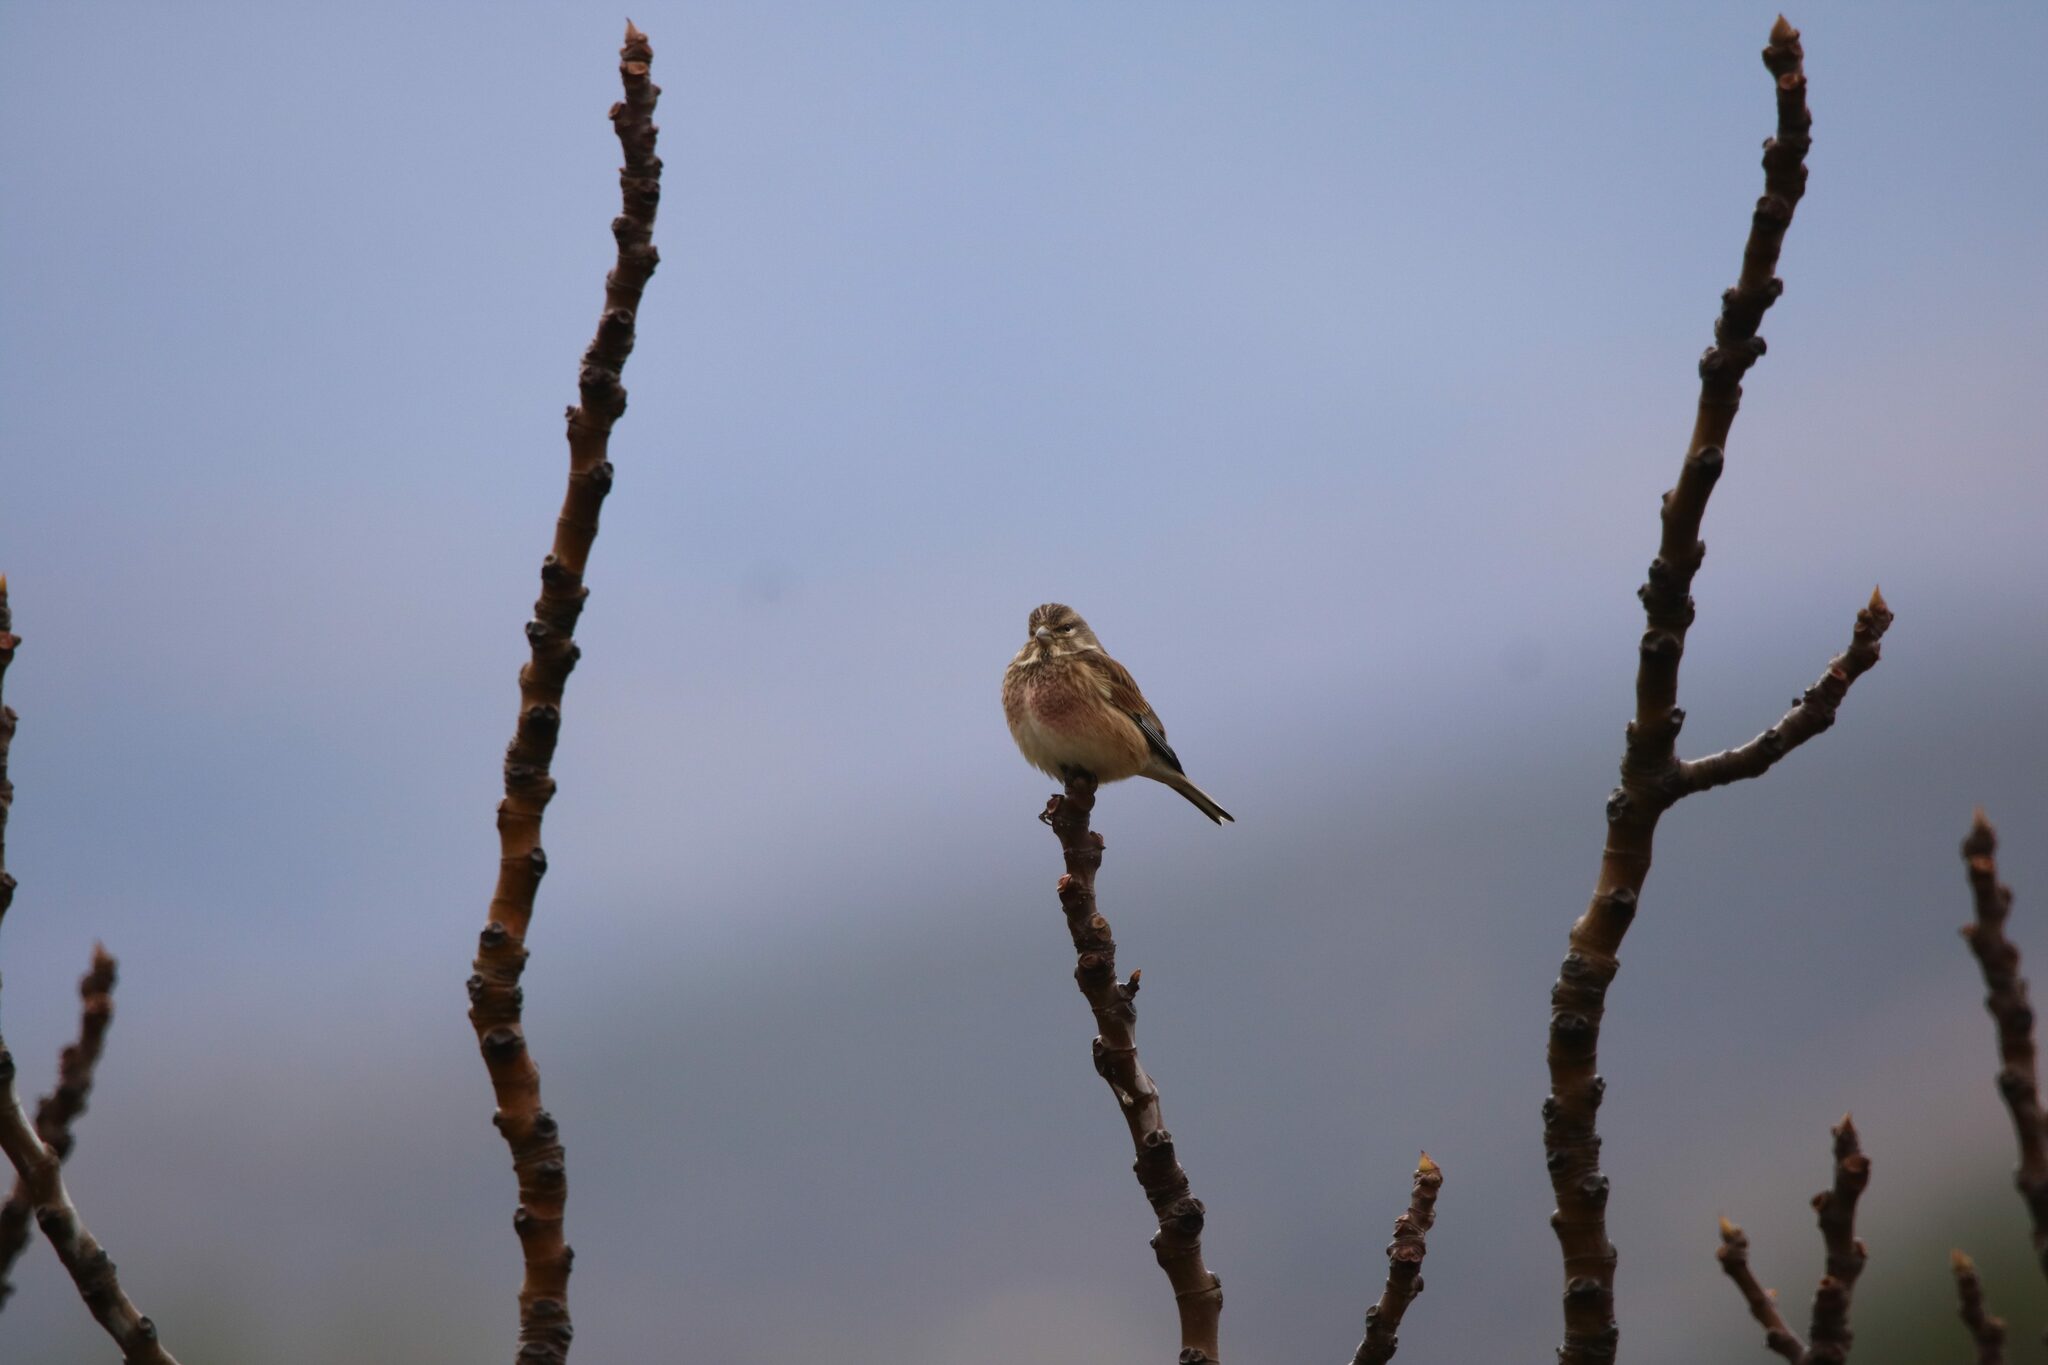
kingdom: Animalia
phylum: Chordata
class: Aves
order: Passeriformes
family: Fringillidae
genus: Linaria
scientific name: Linaria cannabina
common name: Common linnet
